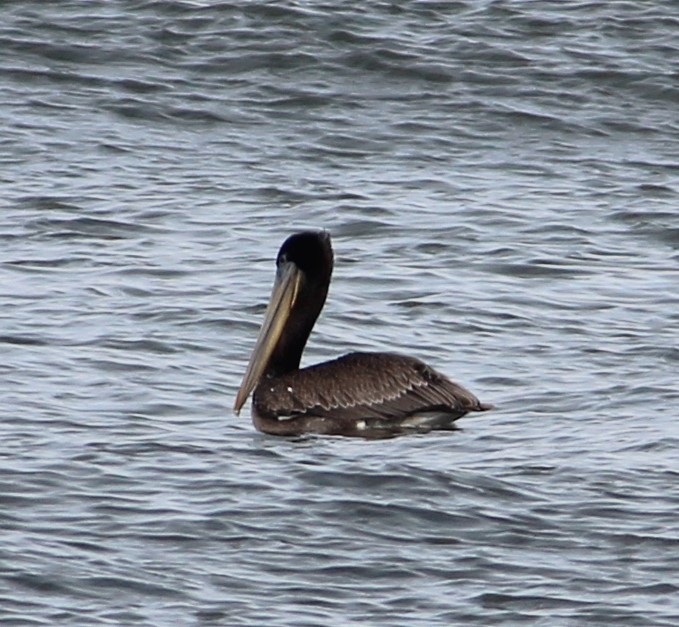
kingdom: Animalia
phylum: Chordata
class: Aves
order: Pelecaniformes
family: Pelecanidae
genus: Pelecanus
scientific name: Pelecanus occidentalis
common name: Brown pelican
